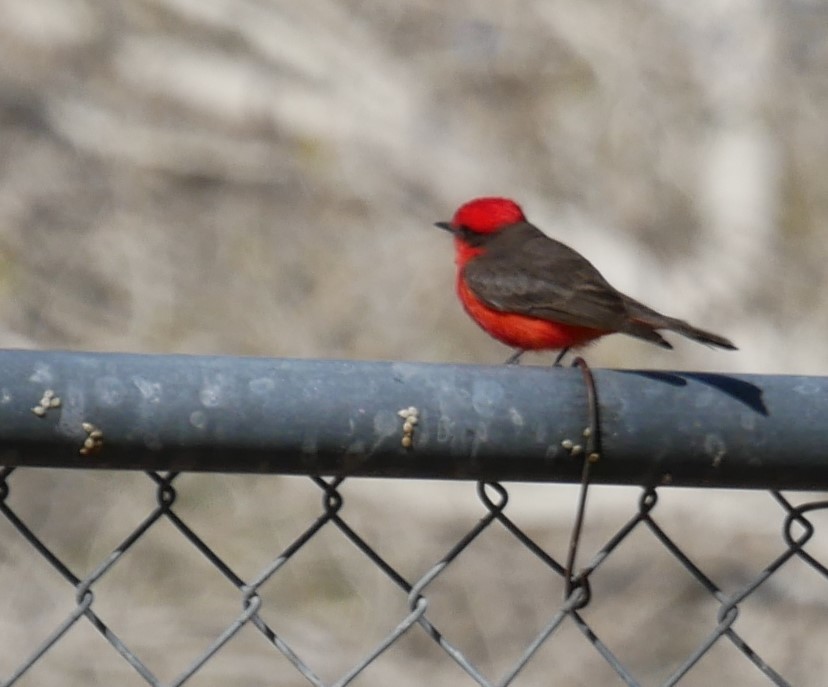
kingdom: Animalia
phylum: Chordata
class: Aves
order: Passeriformes
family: Tyrannidae
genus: Pyrocephalus
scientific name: Pyrocephalus rubinus
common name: Vermilion flycatcher
